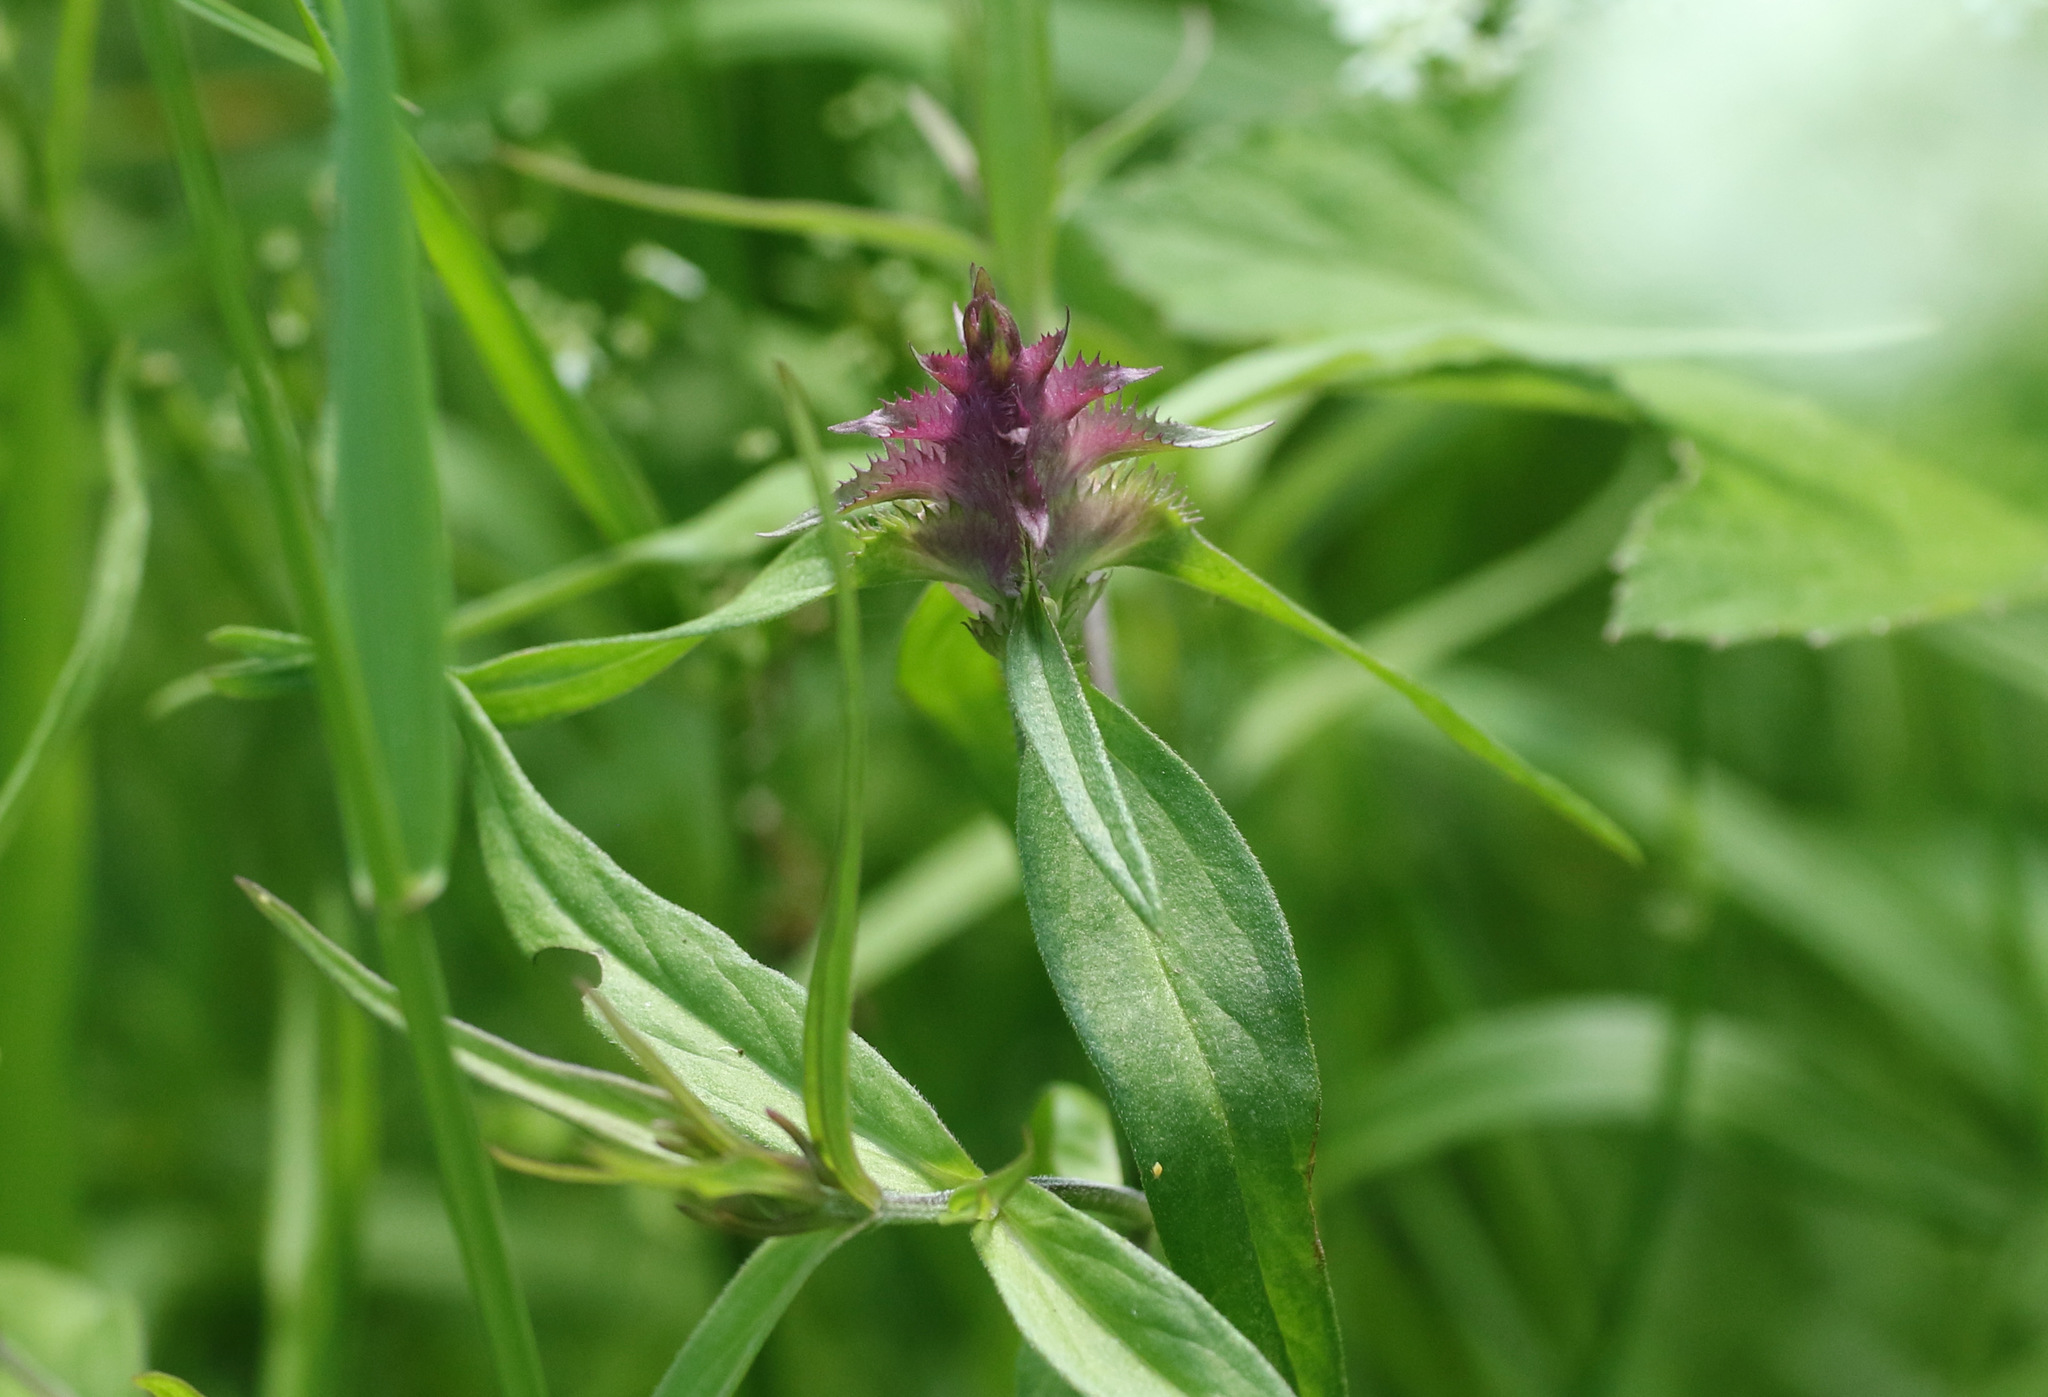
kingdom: Plantae
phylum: Tracheophyta
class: Magnoliopsida
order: Lamiales
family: Orobanchaceae
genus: Melampyrum
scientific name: Melampyrum cristatum
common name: Crested cow-wheat
